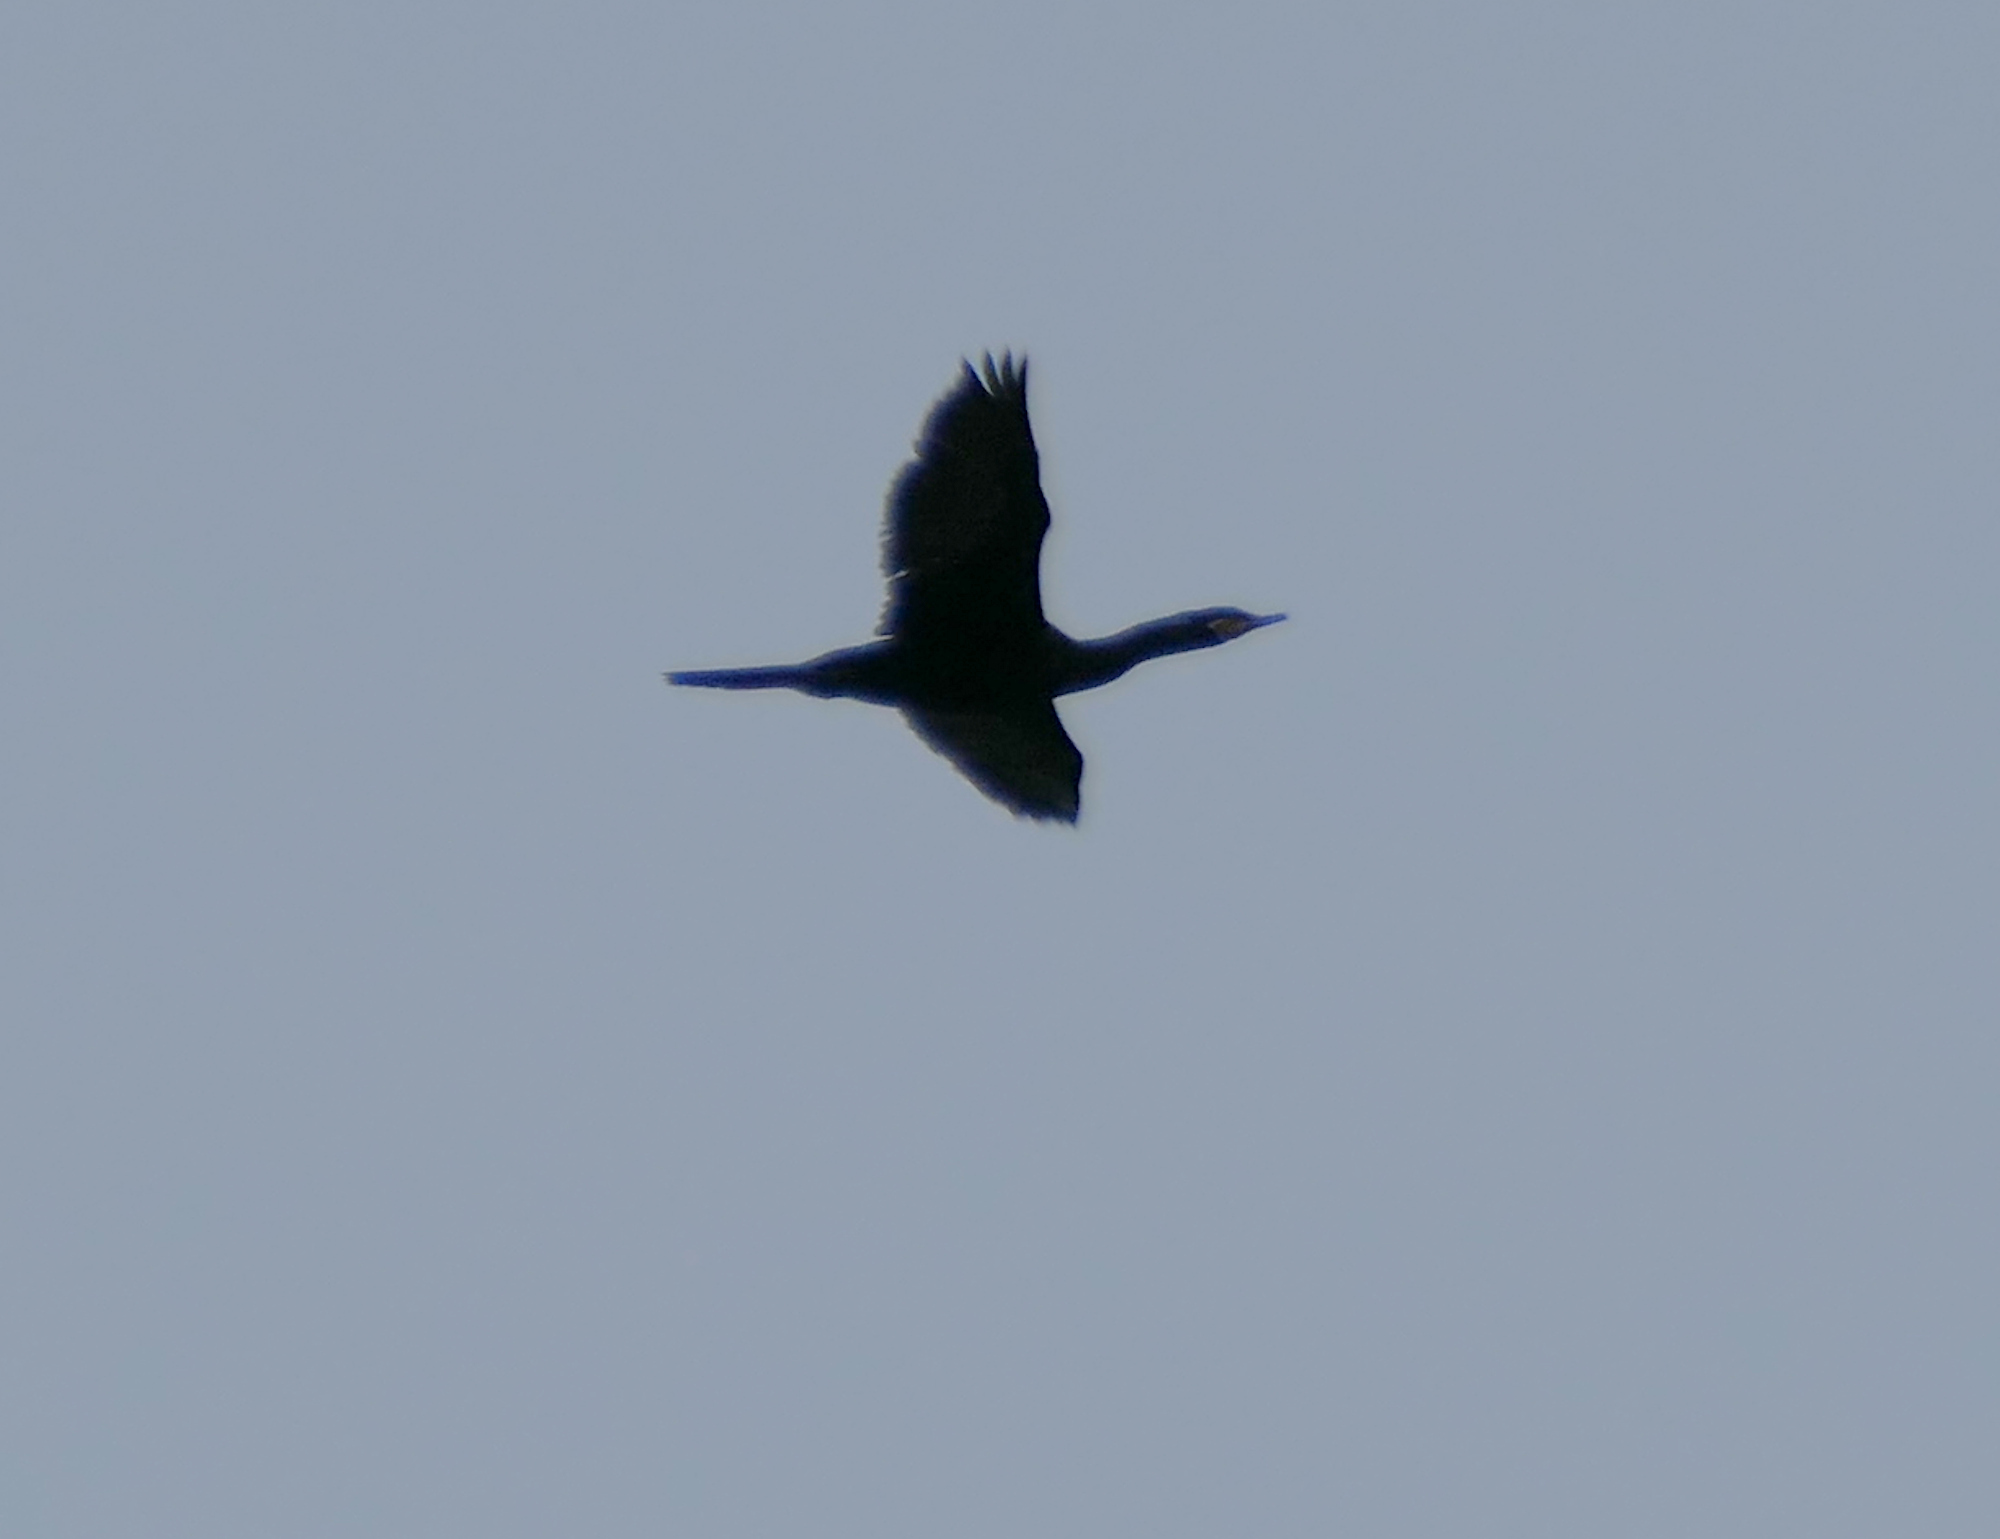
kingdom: Animalia
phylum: Chordata
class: Aves
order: Suliformes
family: Phalacrocoracidae
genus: Phalacrocorax
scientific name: Phalacrocorax brasilianus
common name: Neotropic cormorant
